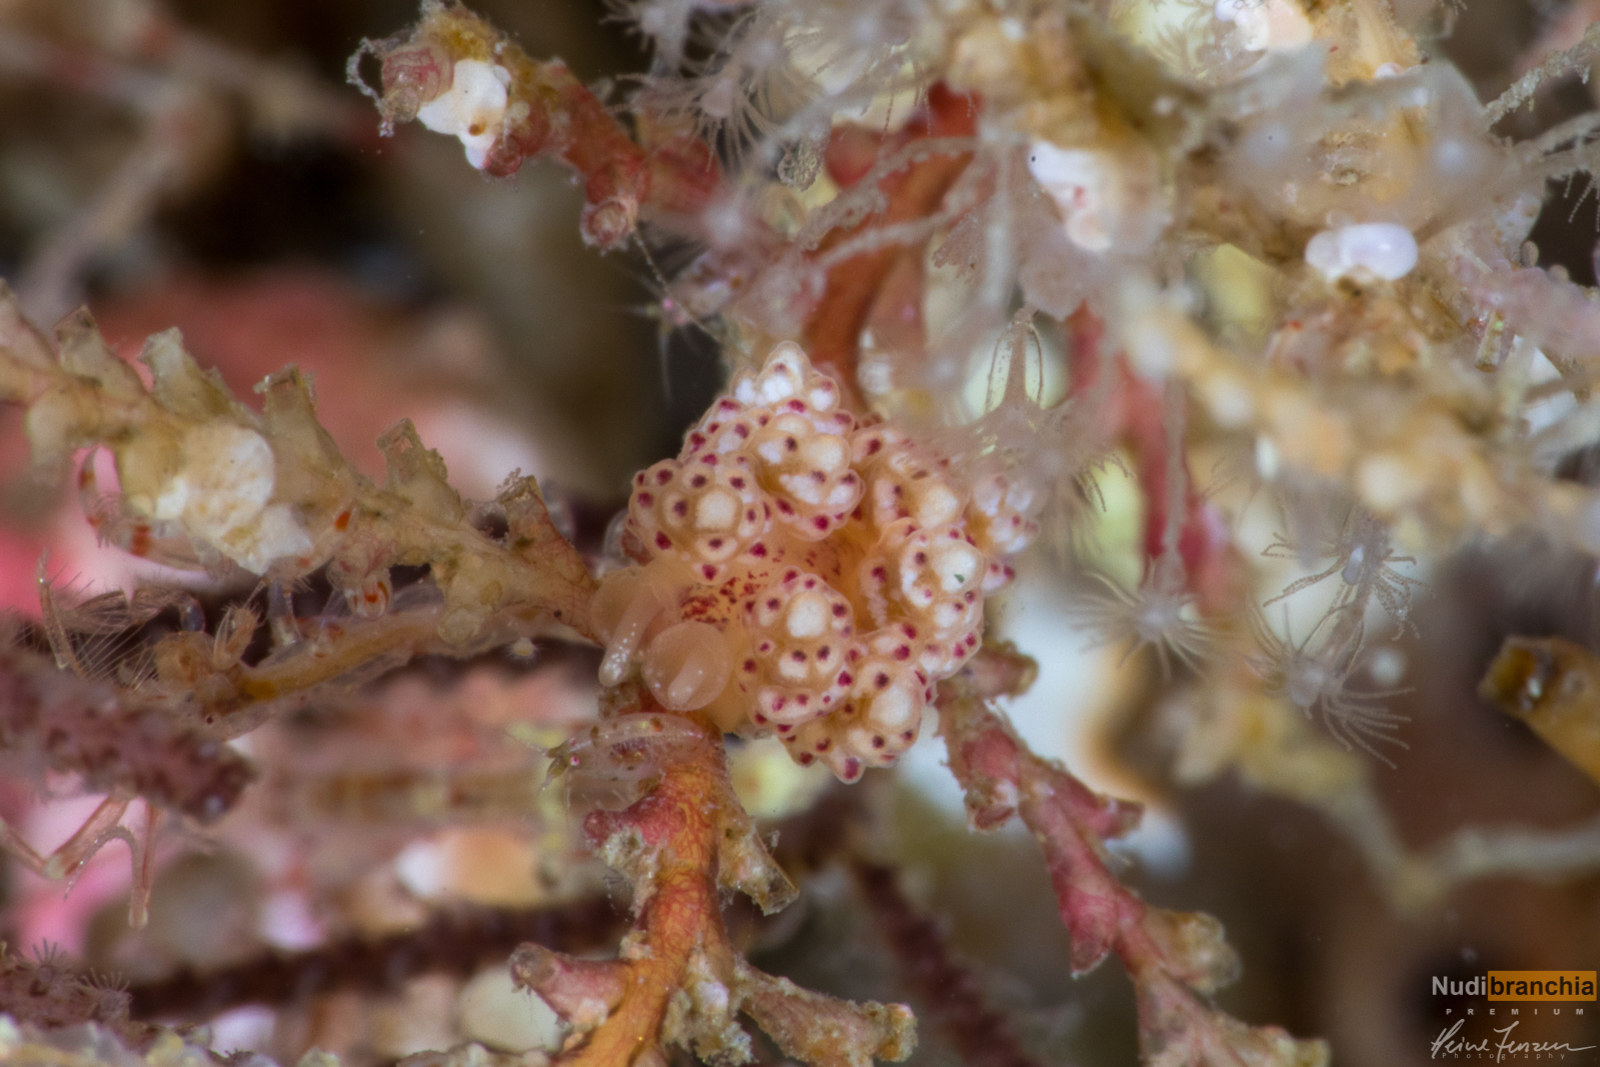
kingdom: Animalia
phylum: Mollusca
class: Gastropoda
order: Nudibranchia
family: Dotidae
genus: Doto
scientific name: Doto coronata
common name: Coronate doto
